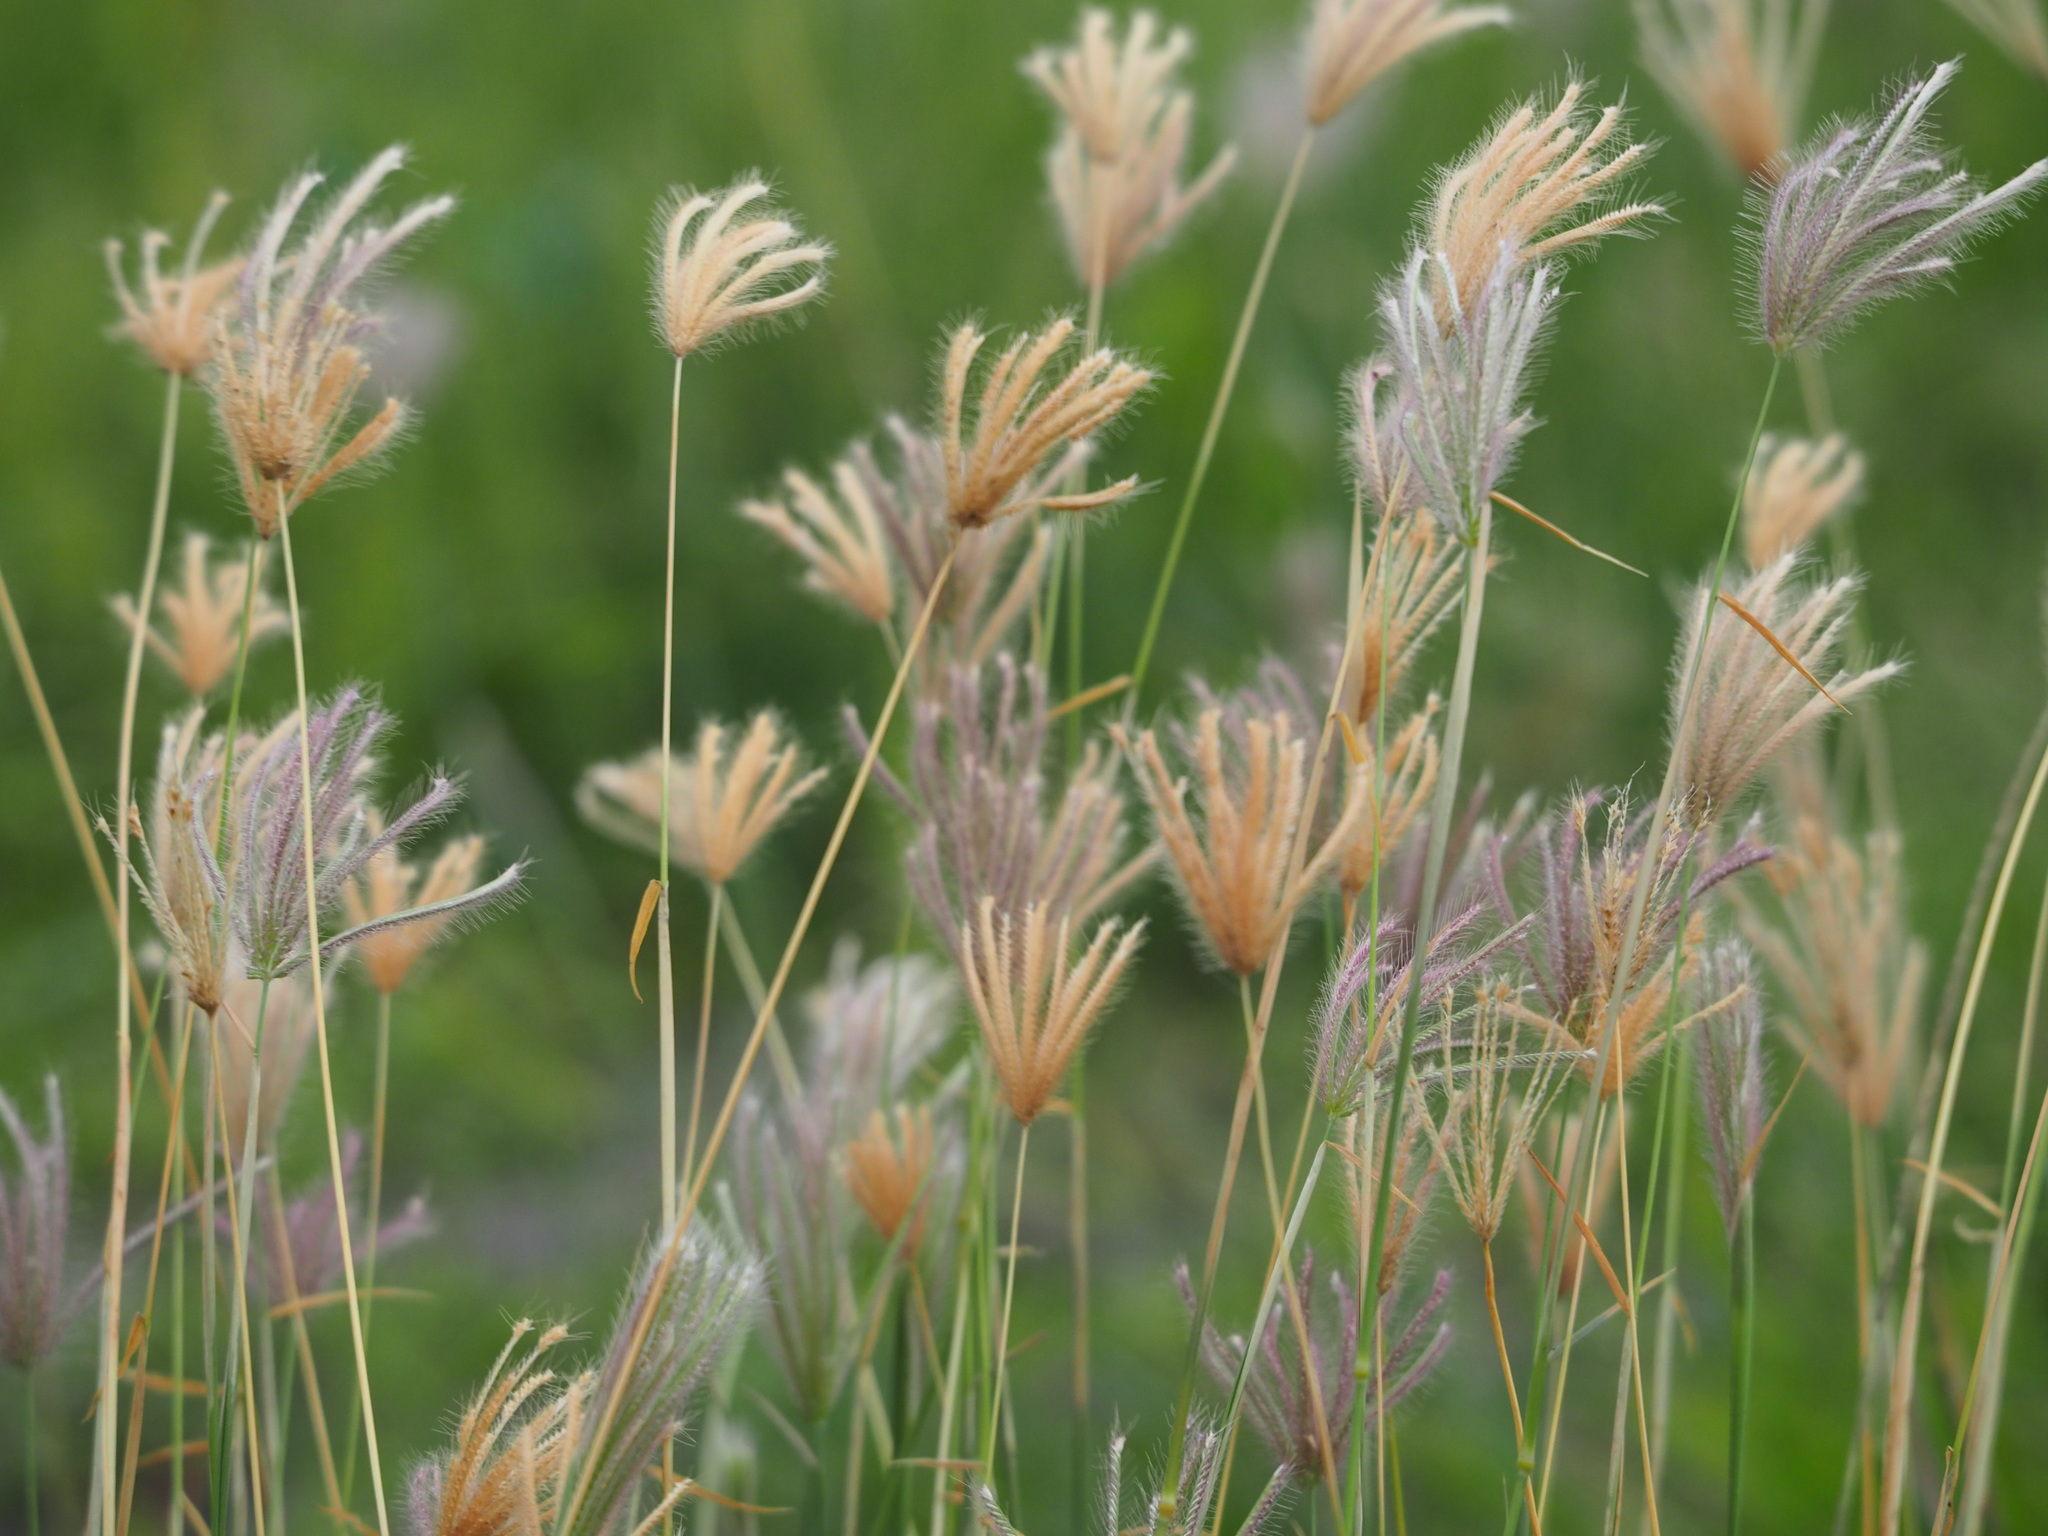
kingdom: Plantae
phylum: Tracheophyta
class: Liliopsida
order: Poales
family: Poaceae
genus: Chloris
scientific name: Chloris barbata
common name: Swollen fingergrass
